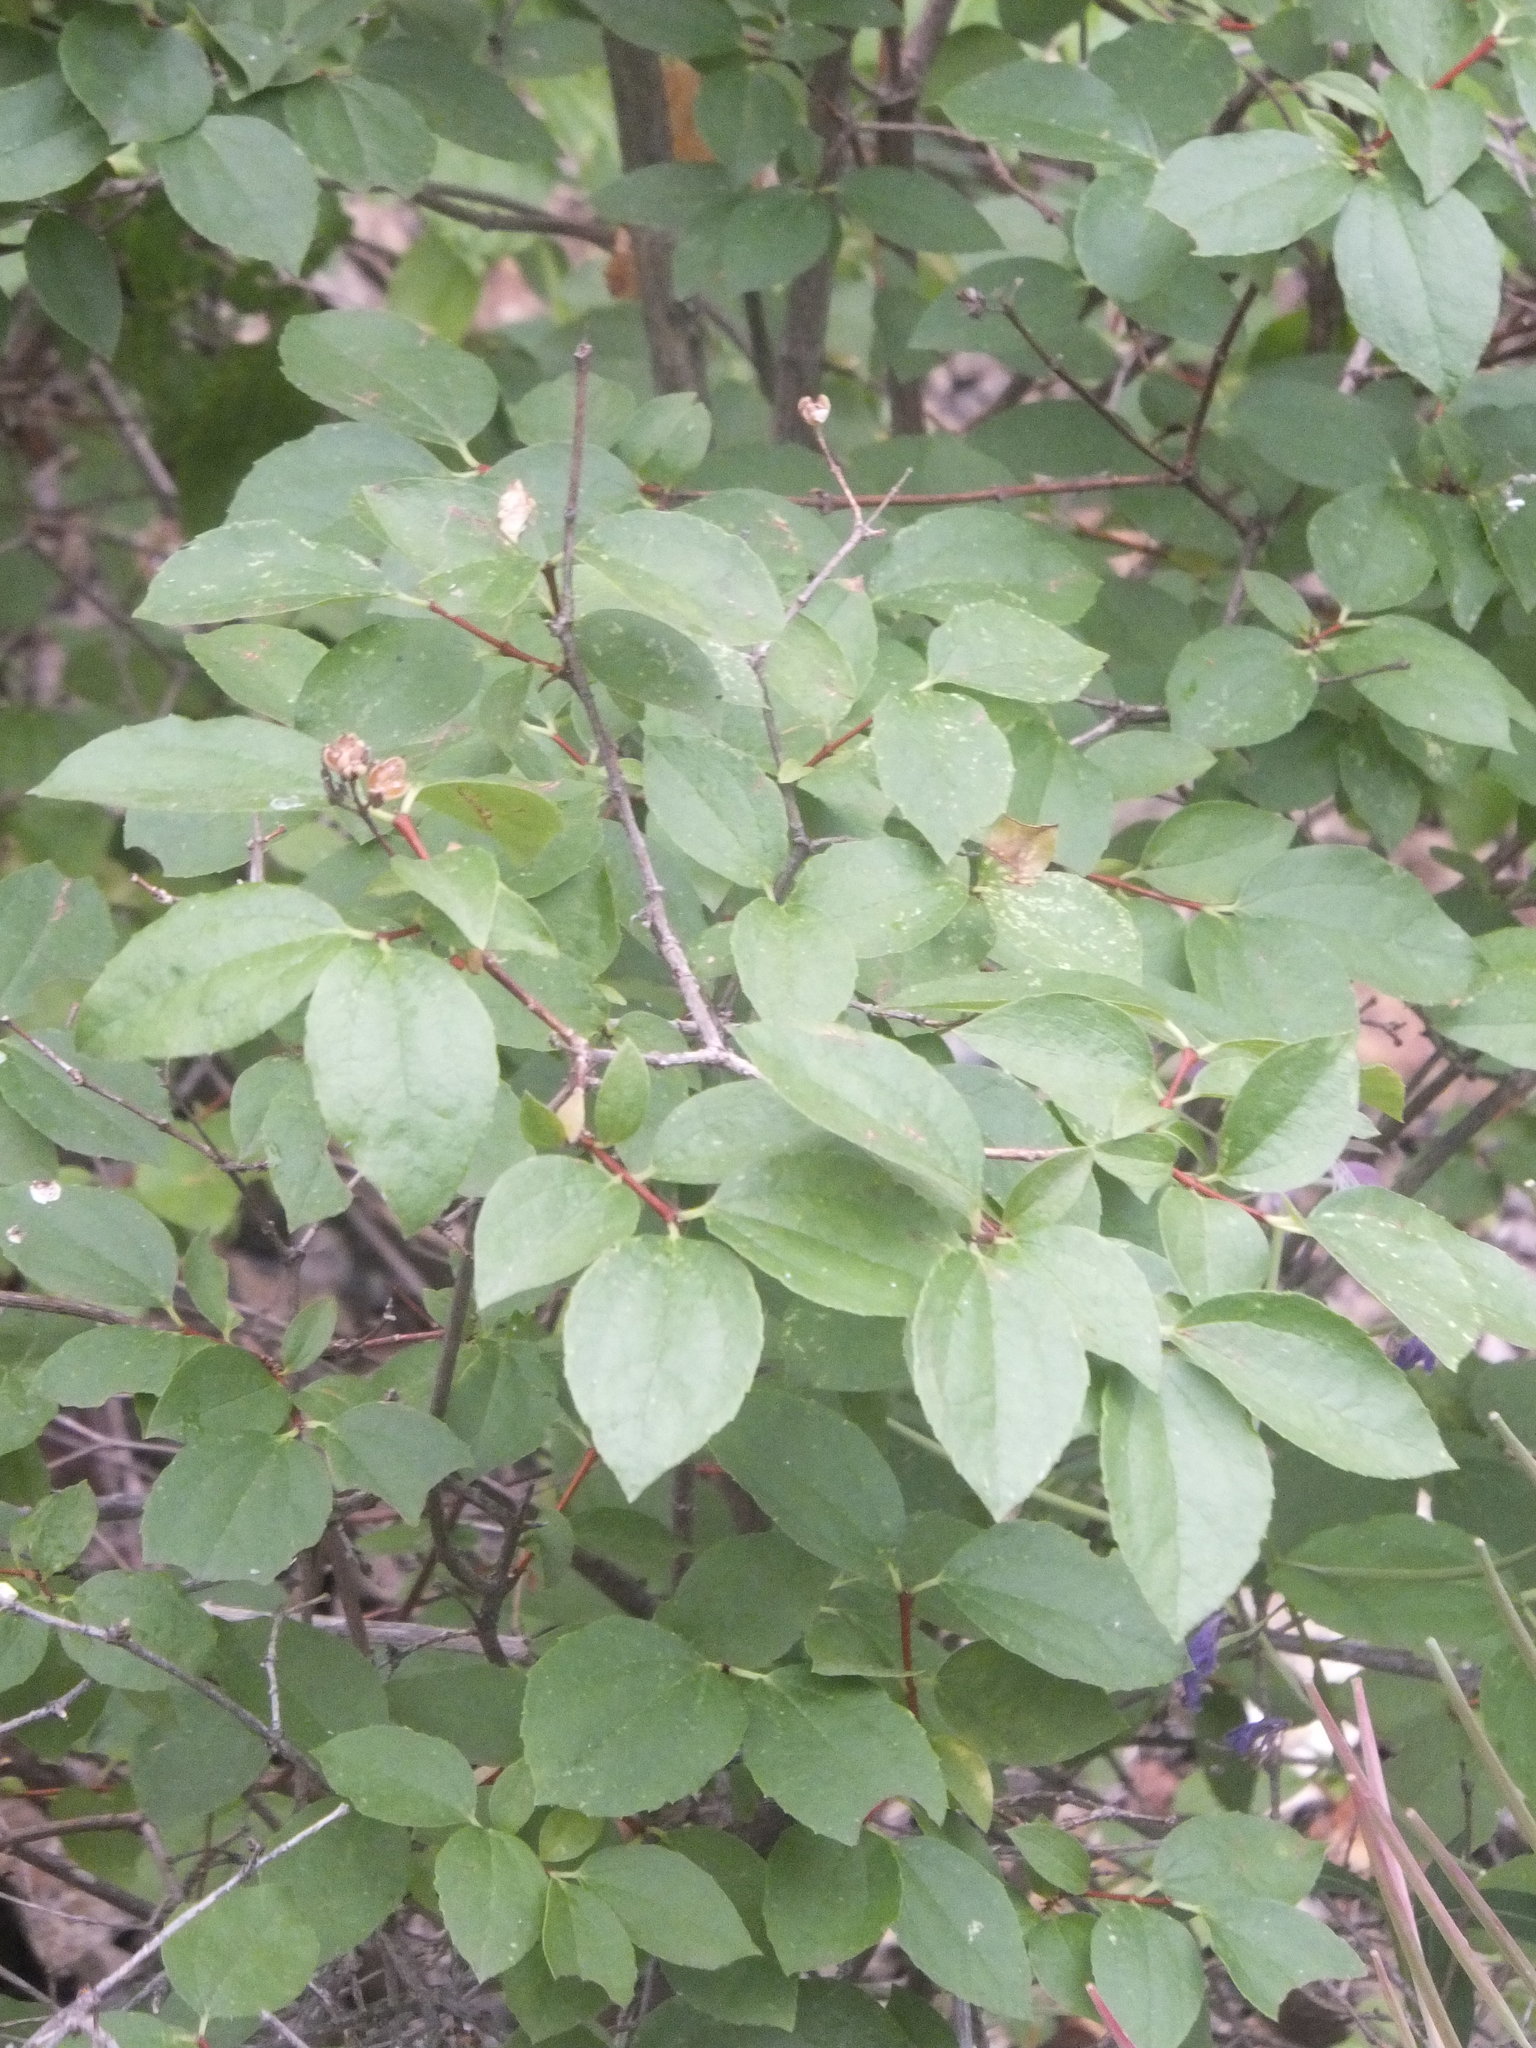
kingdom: Plantae
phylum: Tracheophyta
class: Magnoliopsida
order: Cornales
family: Hydrangeaceae
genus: Philadelphus
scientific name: Philadelphus lewisii
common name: Lewis's mock orange
